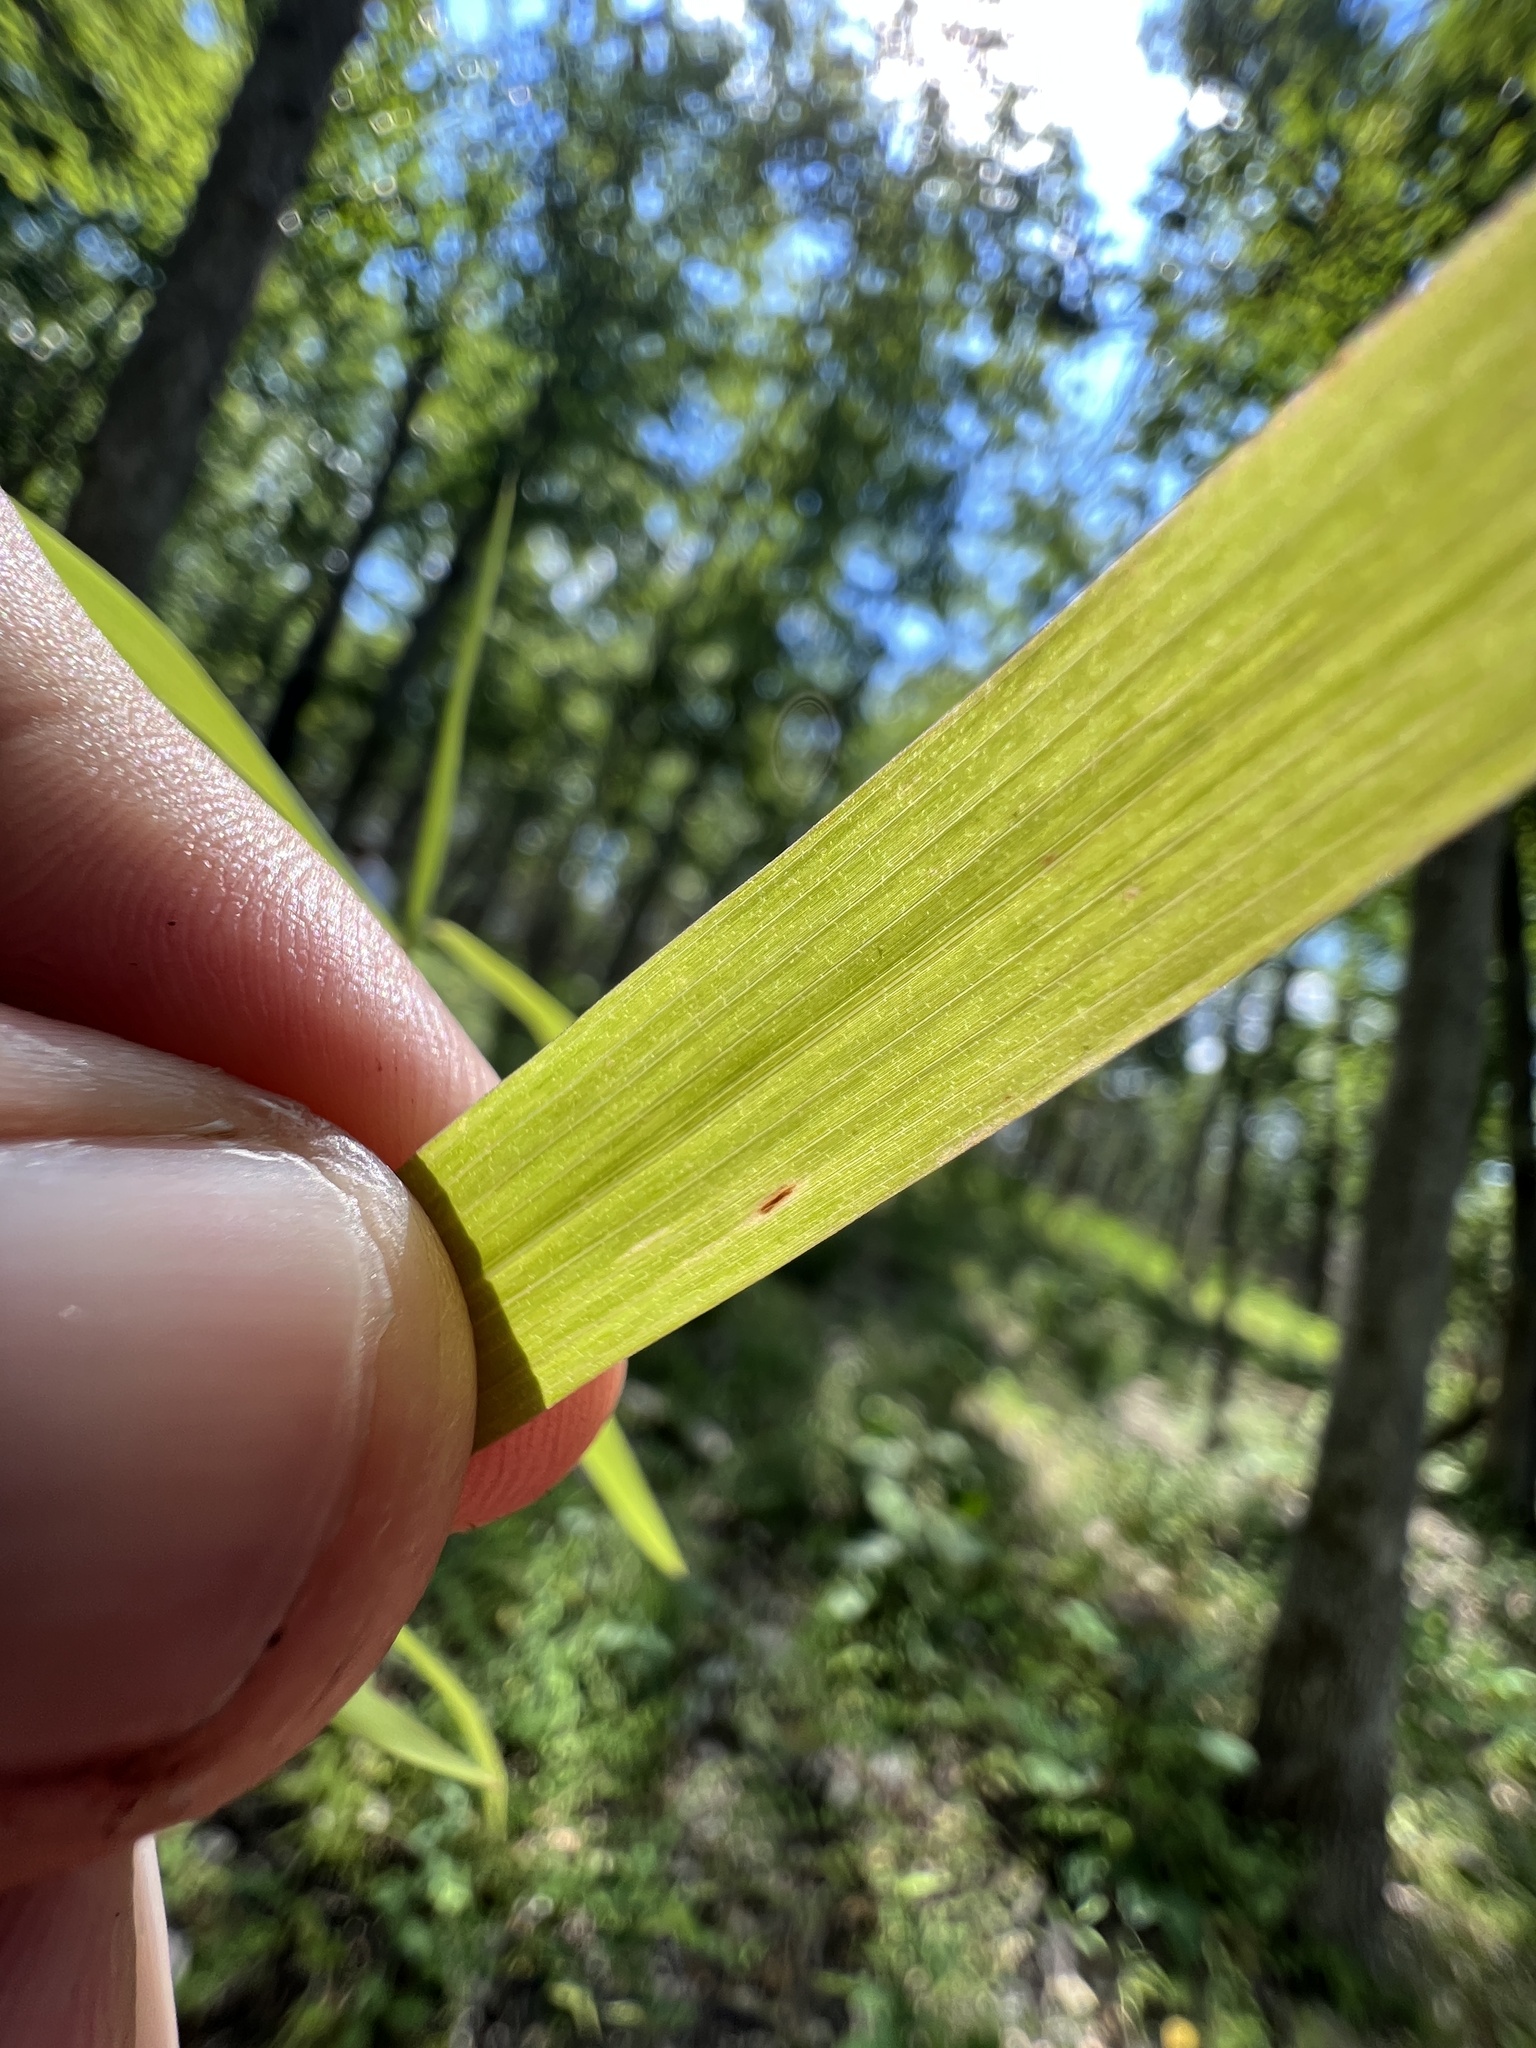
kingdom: Plantae
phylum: Tracheophyta
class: Liliopsida
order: Poales
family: Poaceae
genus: Brachyelytrum
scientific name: Brachyelytrum erectum
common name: Bearded shorthusk
